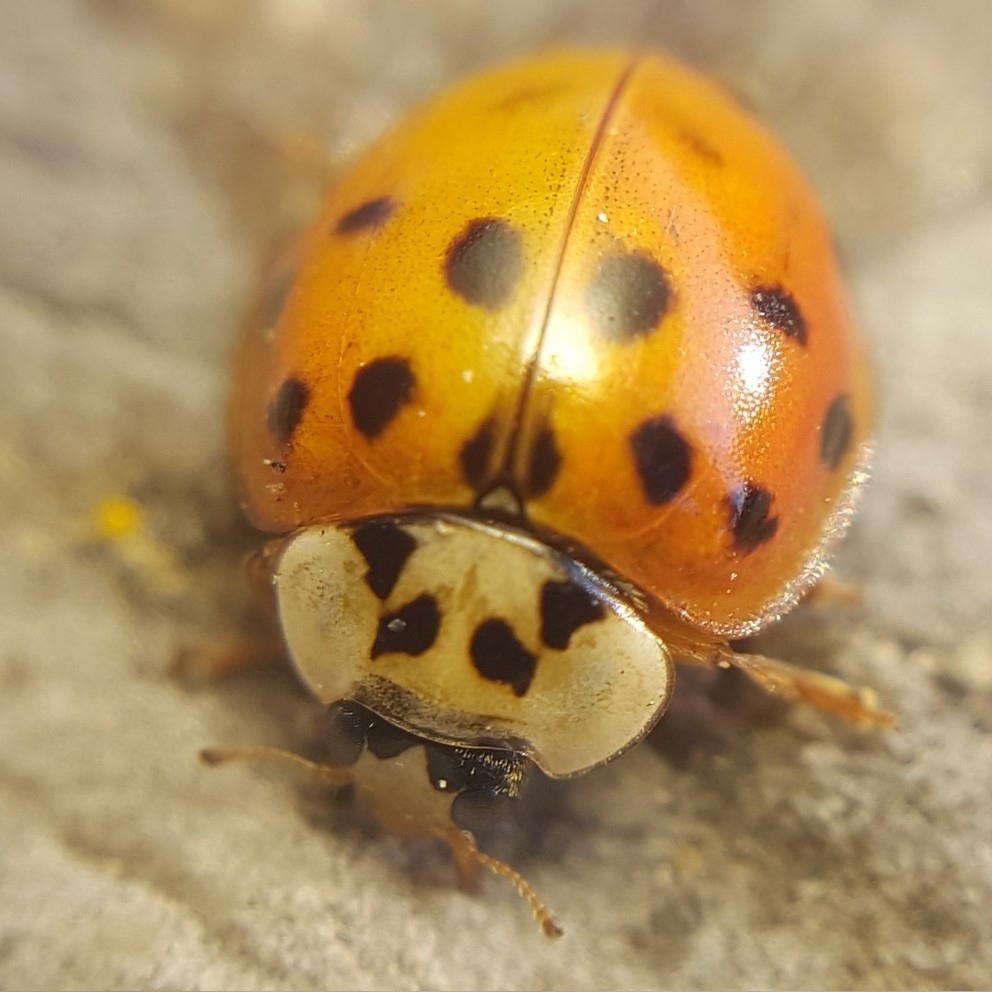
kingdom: Animalia
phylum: Arthropoda
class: Insecta
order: Coleoptera
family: Coccinellidae
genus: Harmonia
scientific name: Harmonia axyridis
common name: Harlequin ladybird
